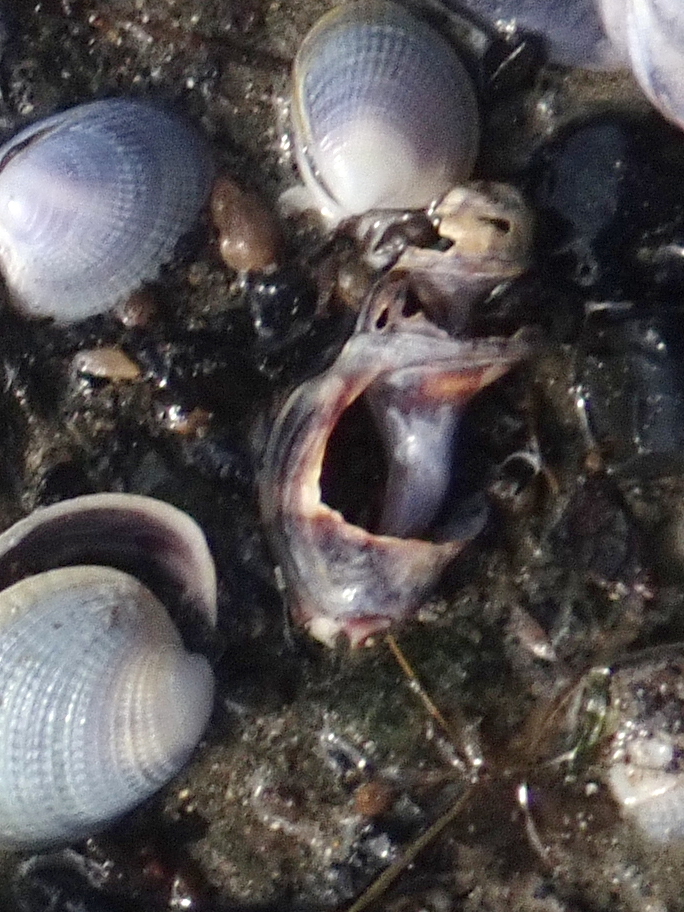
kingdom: Animalia
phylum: Mollusca
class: Gastropoda
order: Neogastropoda
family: Cominellidae
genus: Cominella
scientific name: Cominella glandiformis
